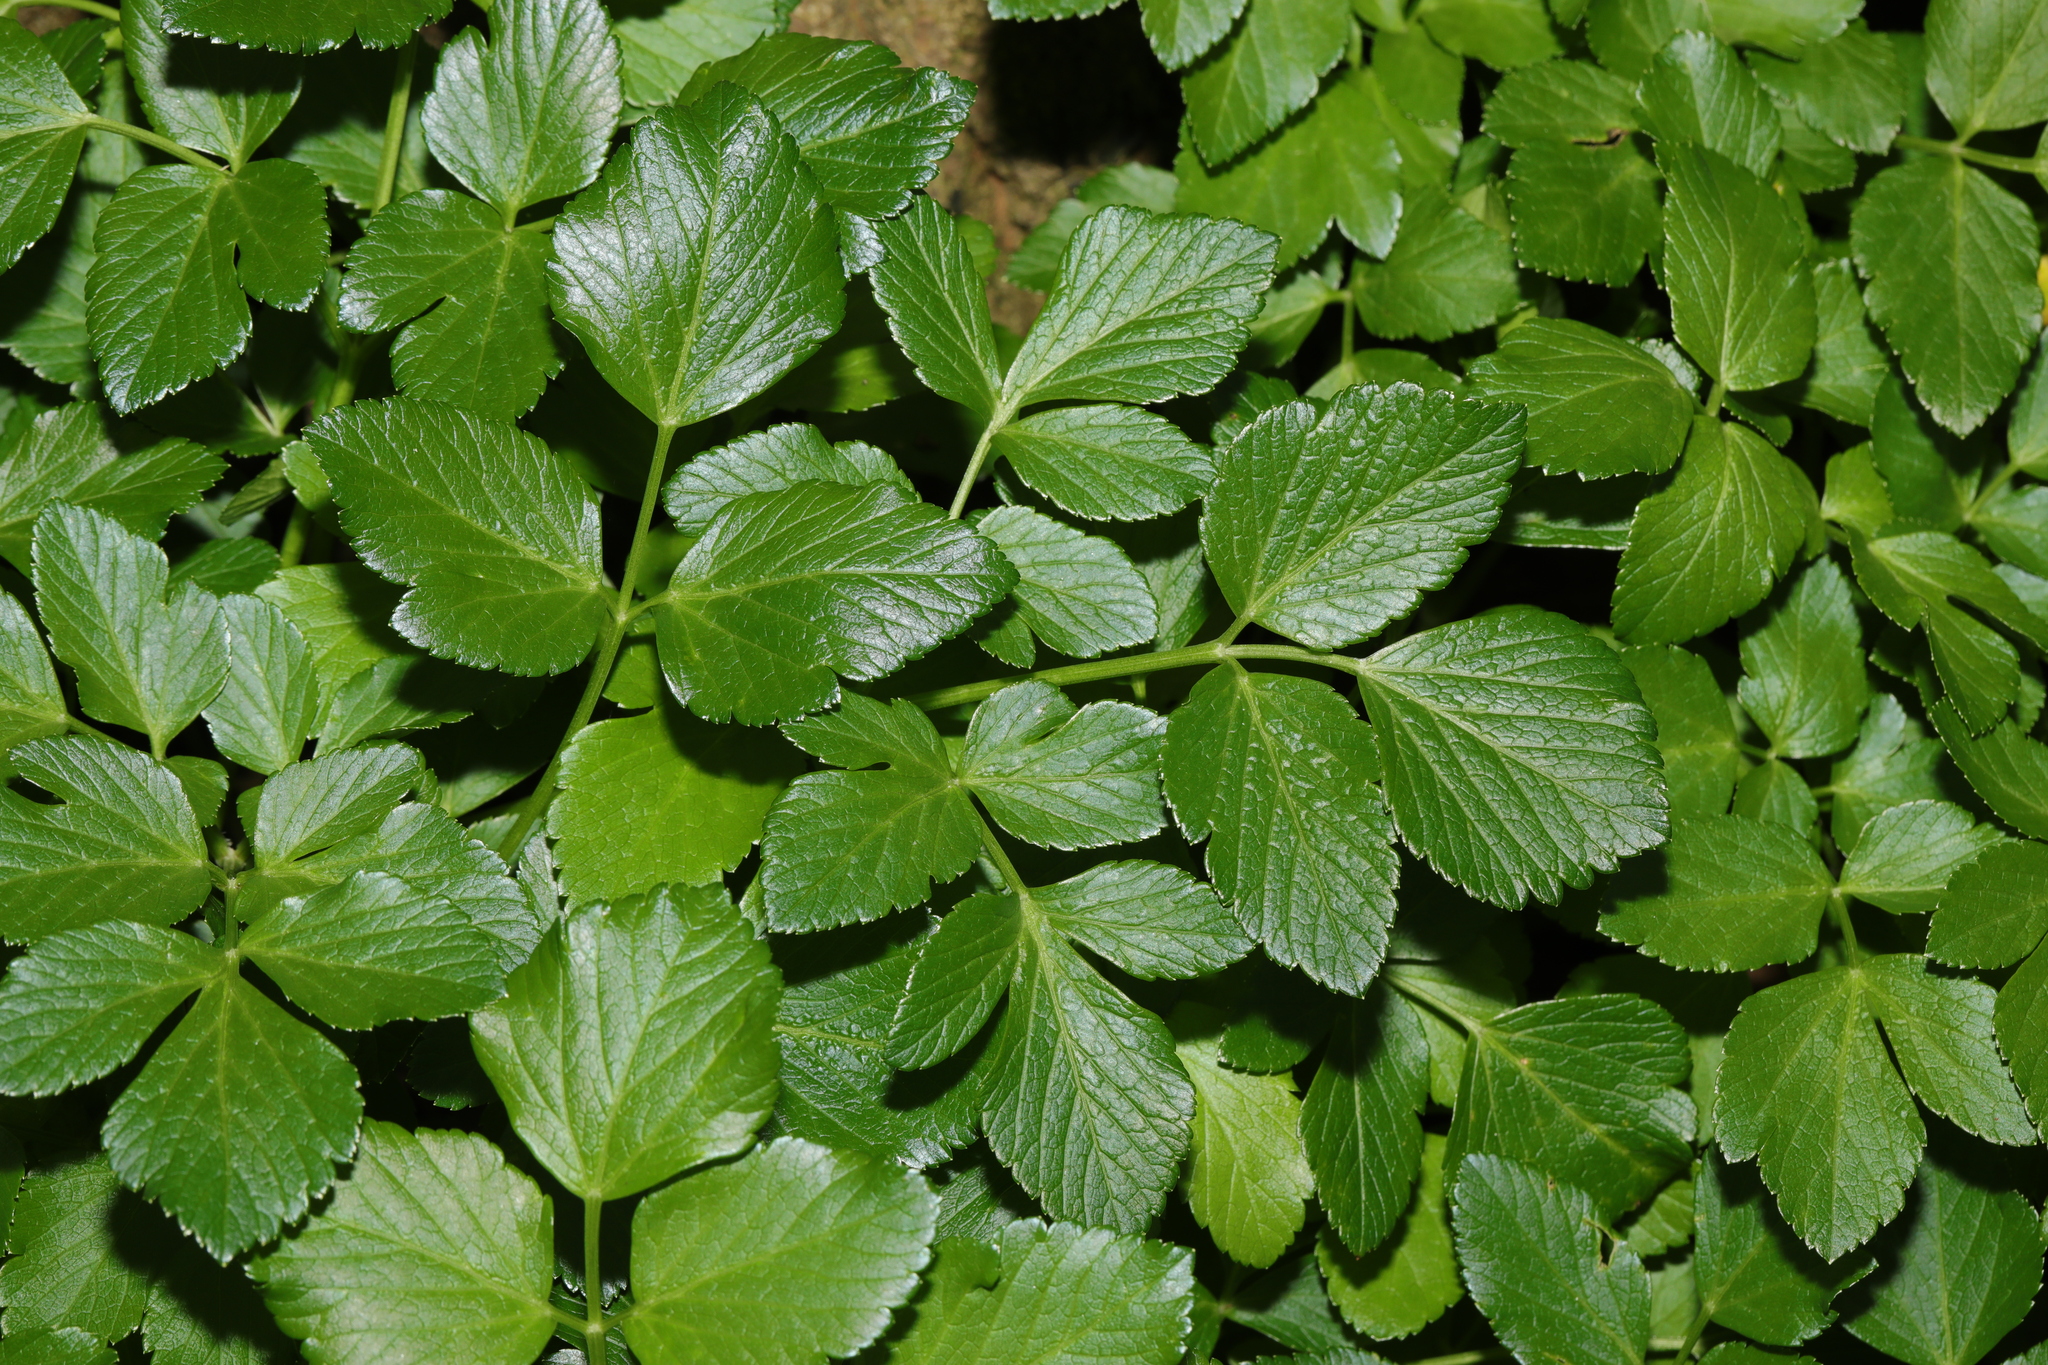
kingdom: Plantae
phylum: Tracheophyta
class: Magnoliopsida
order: Apiales
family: Apiaceae
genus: Smyrnium
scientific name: Smyrnium olusatrum
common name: Alexanders
